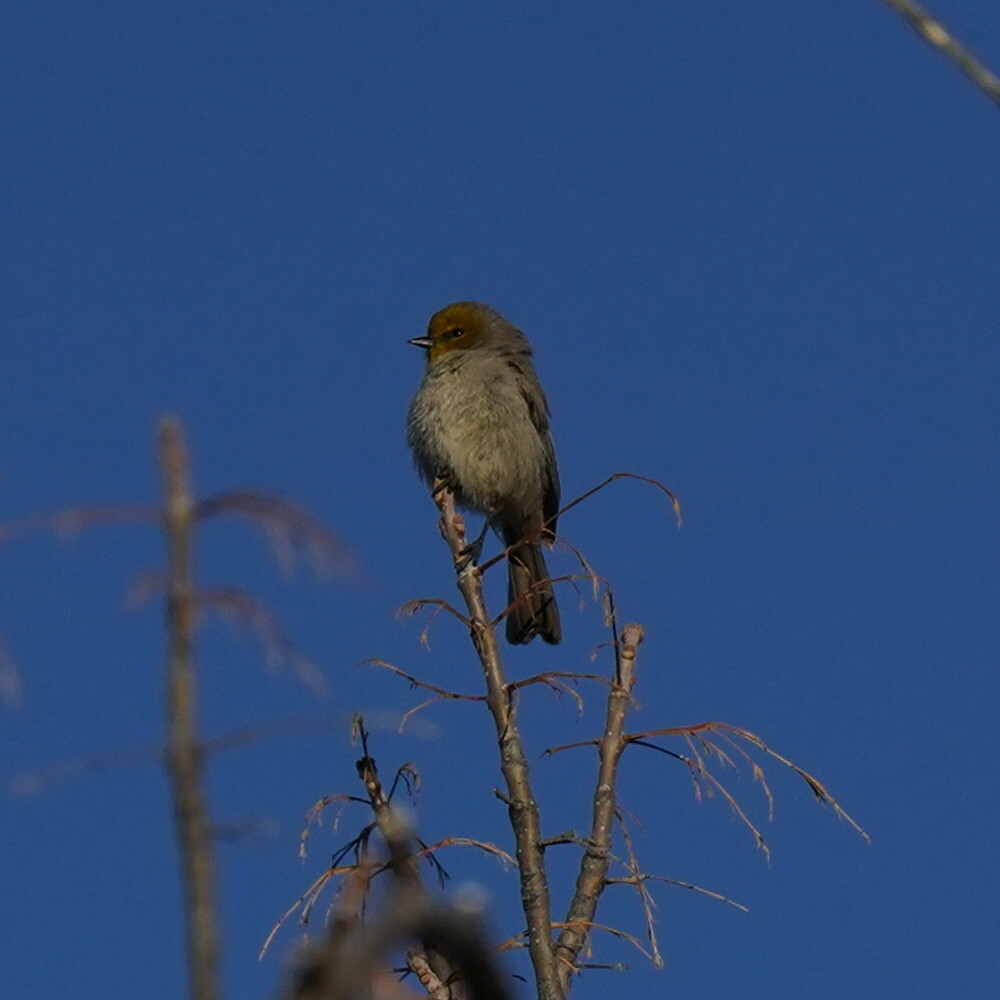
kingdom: Animalia
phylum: Chordata
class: Aves
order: Passeriformes
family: Remizidae
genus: Auriparus
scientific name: Auriparus flaviceps
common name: Verdin
